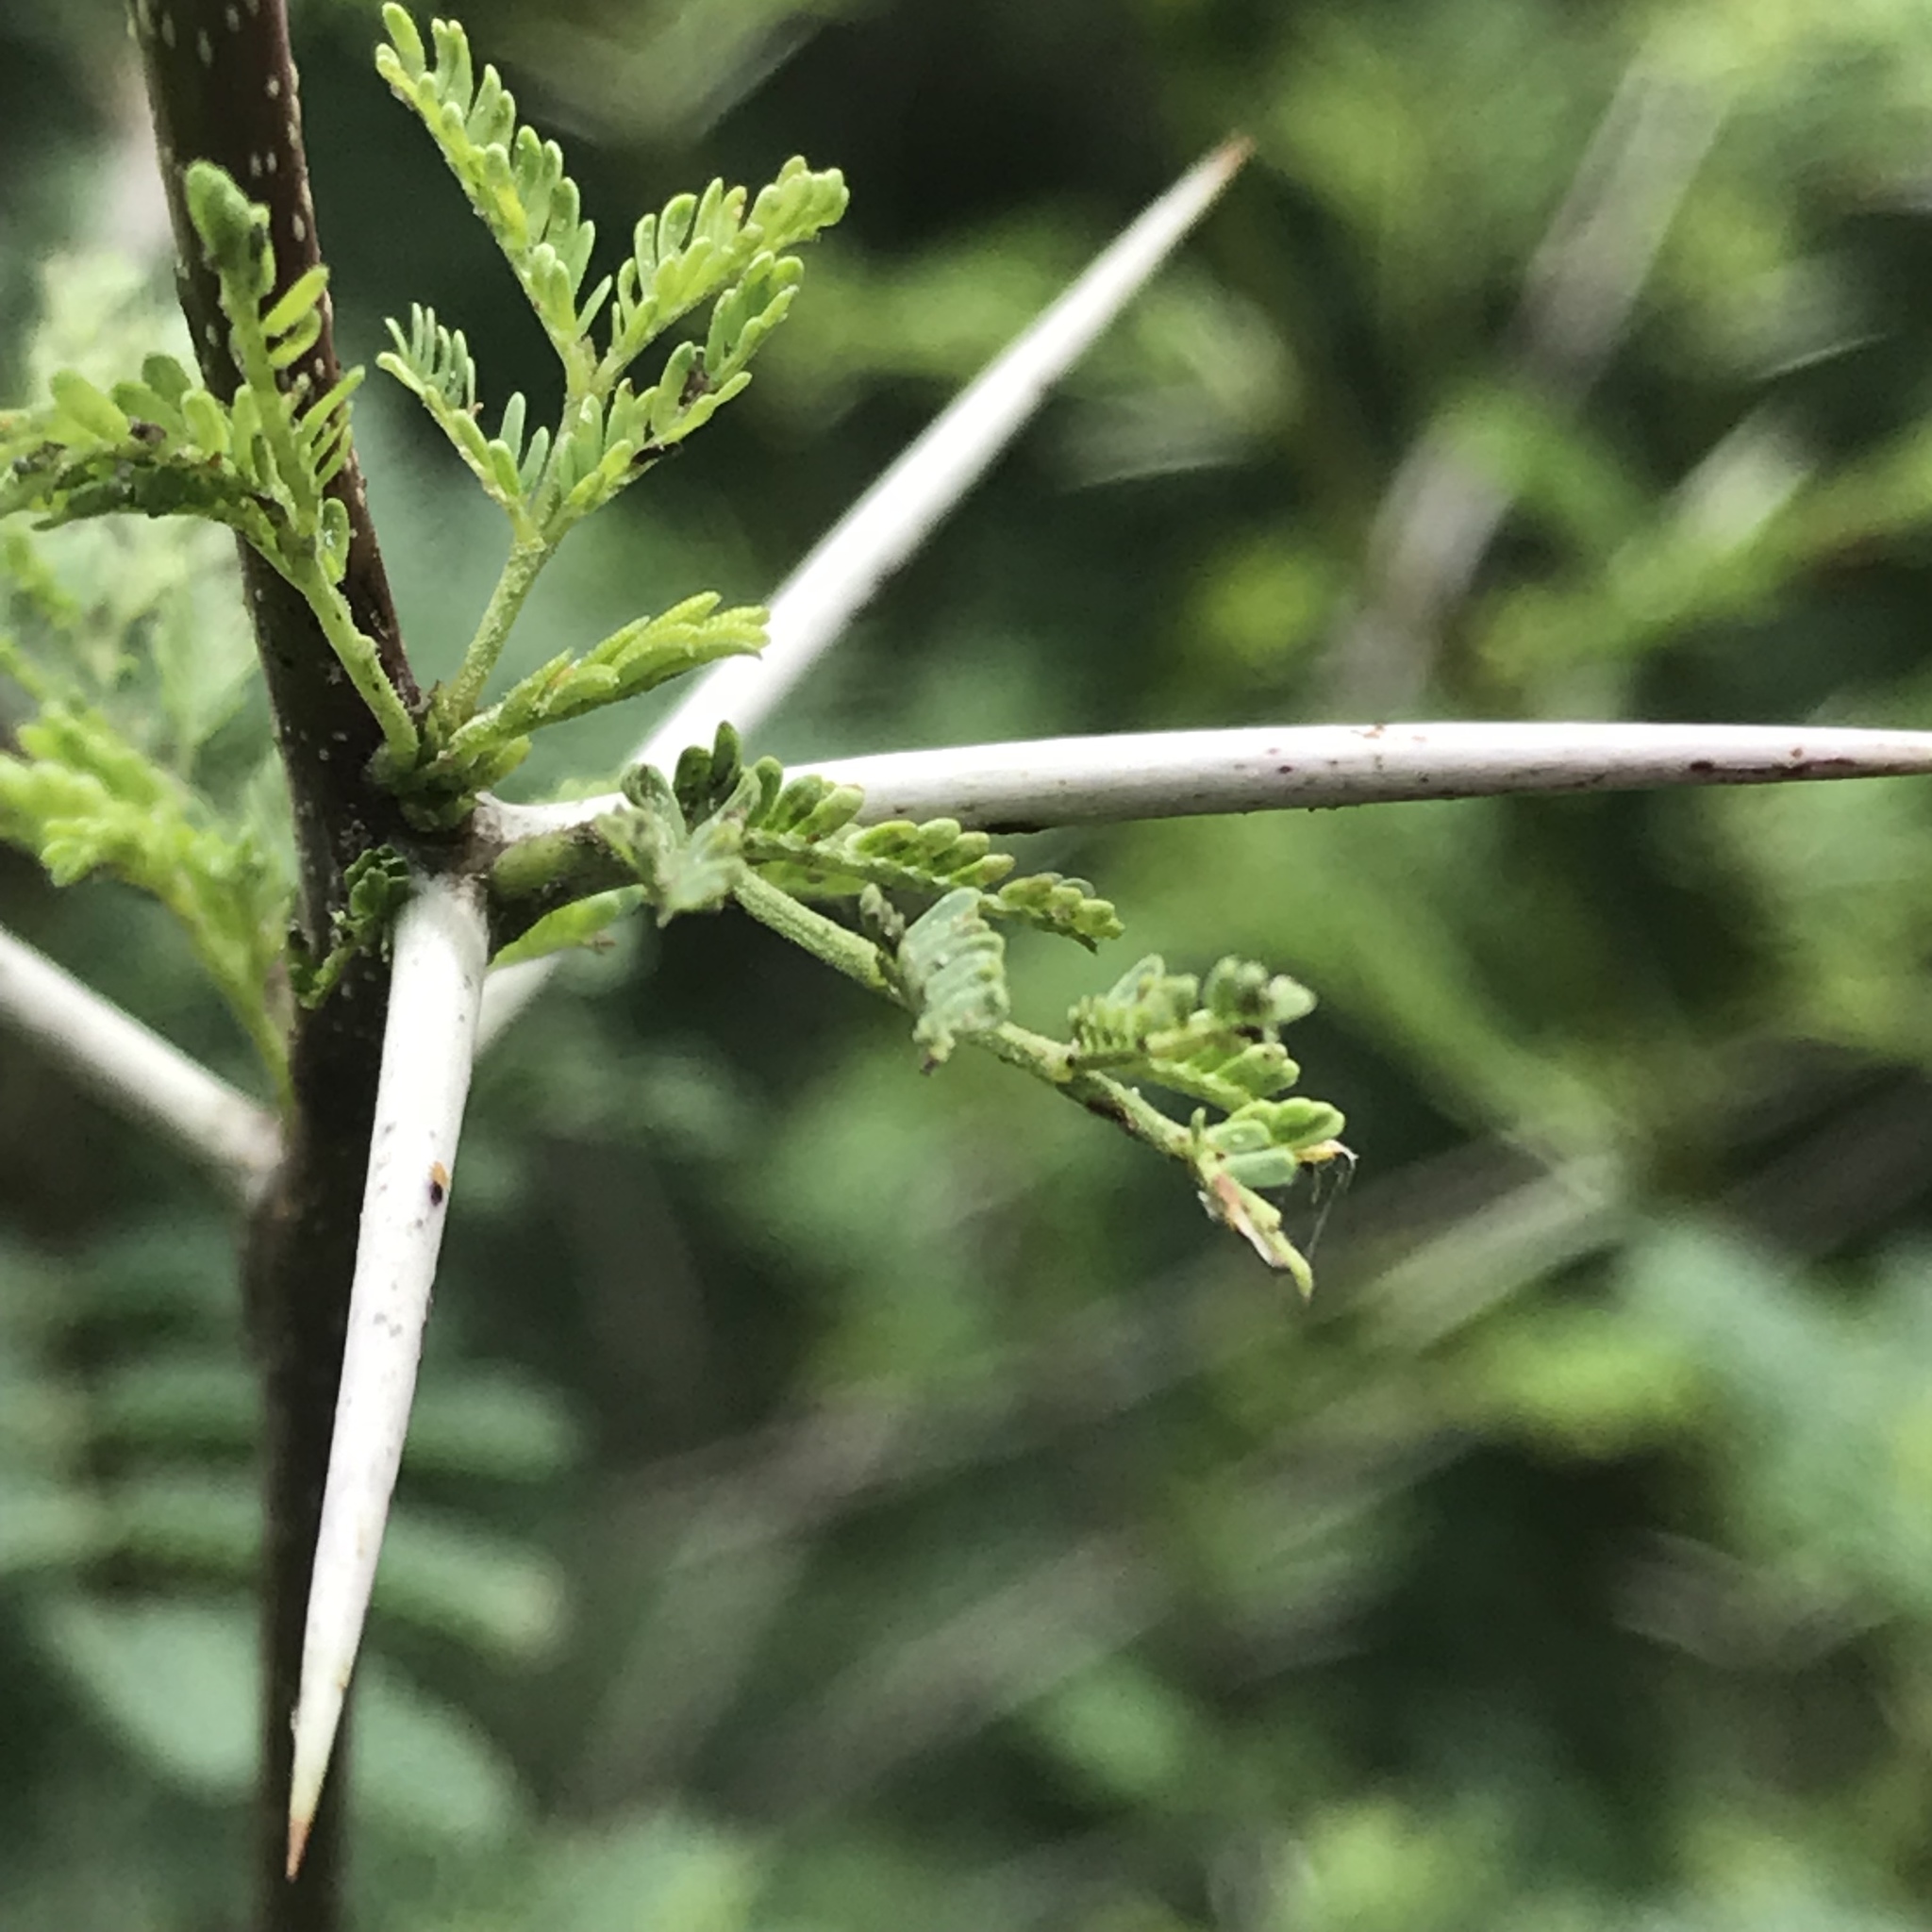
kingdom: Plantae
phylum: Tracheophyta
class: Magnoliopsida
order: Fabales
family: Fabaceae
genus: Vachellia
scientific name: Vachellia farnesiana
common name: Sweet acacia
